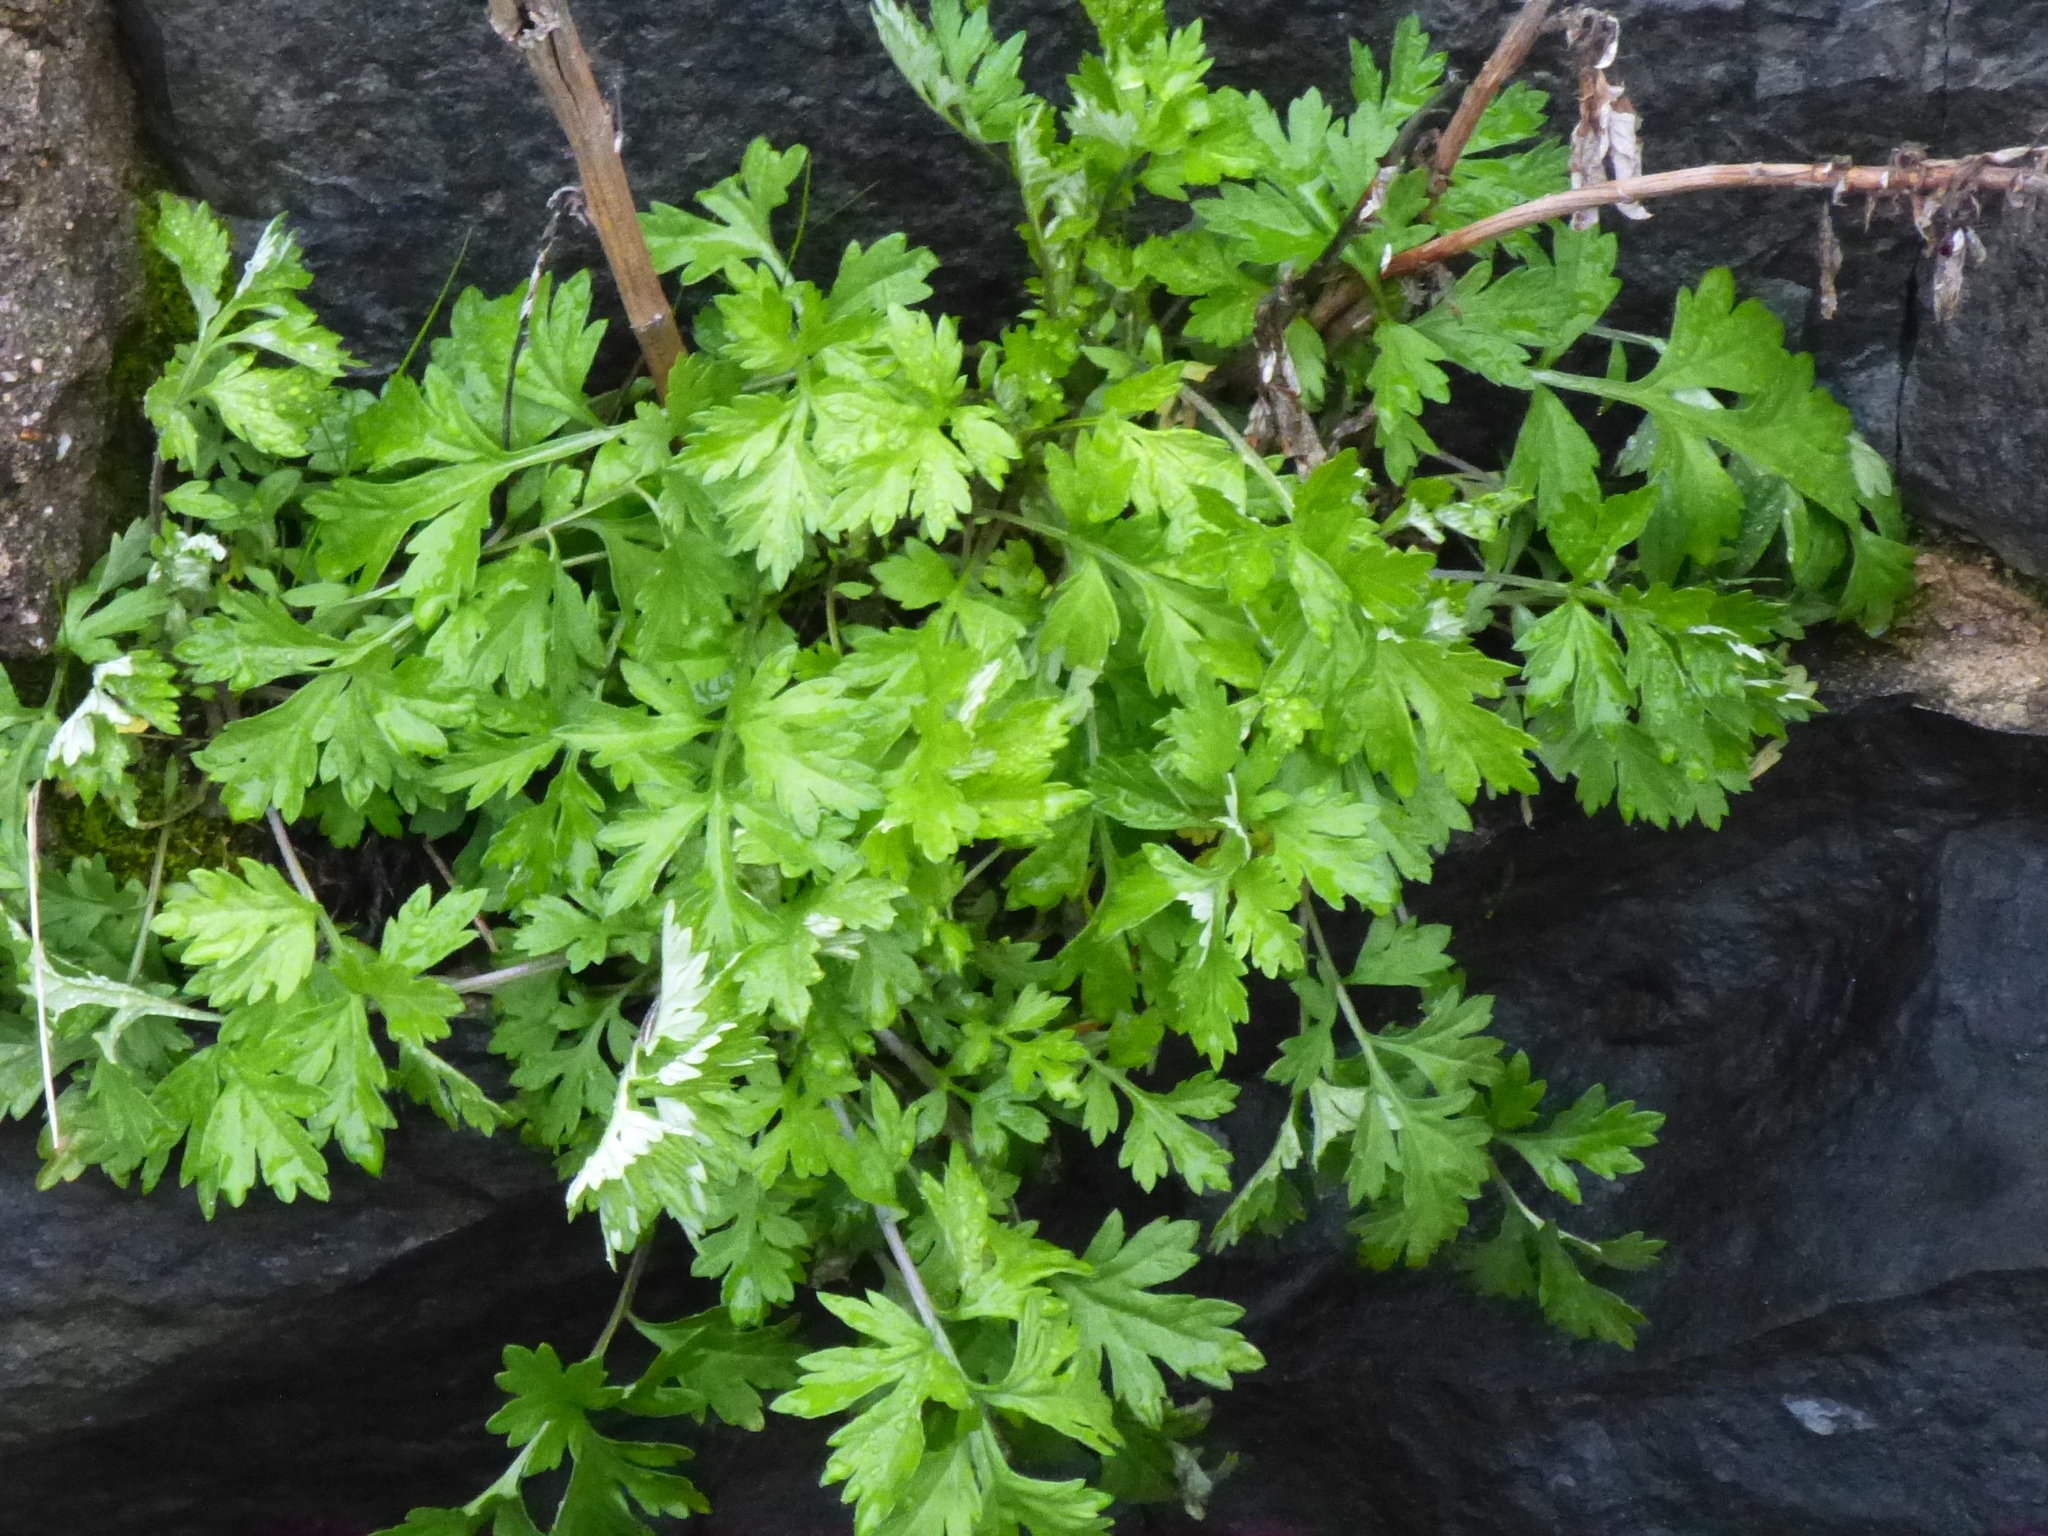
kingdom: Plantae
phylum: Tracheophyta
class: Magnoliopsida
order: Asterales
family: Asteraceae
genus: Artemisia
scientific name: Artemisia vulgaris
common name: Mugwort
